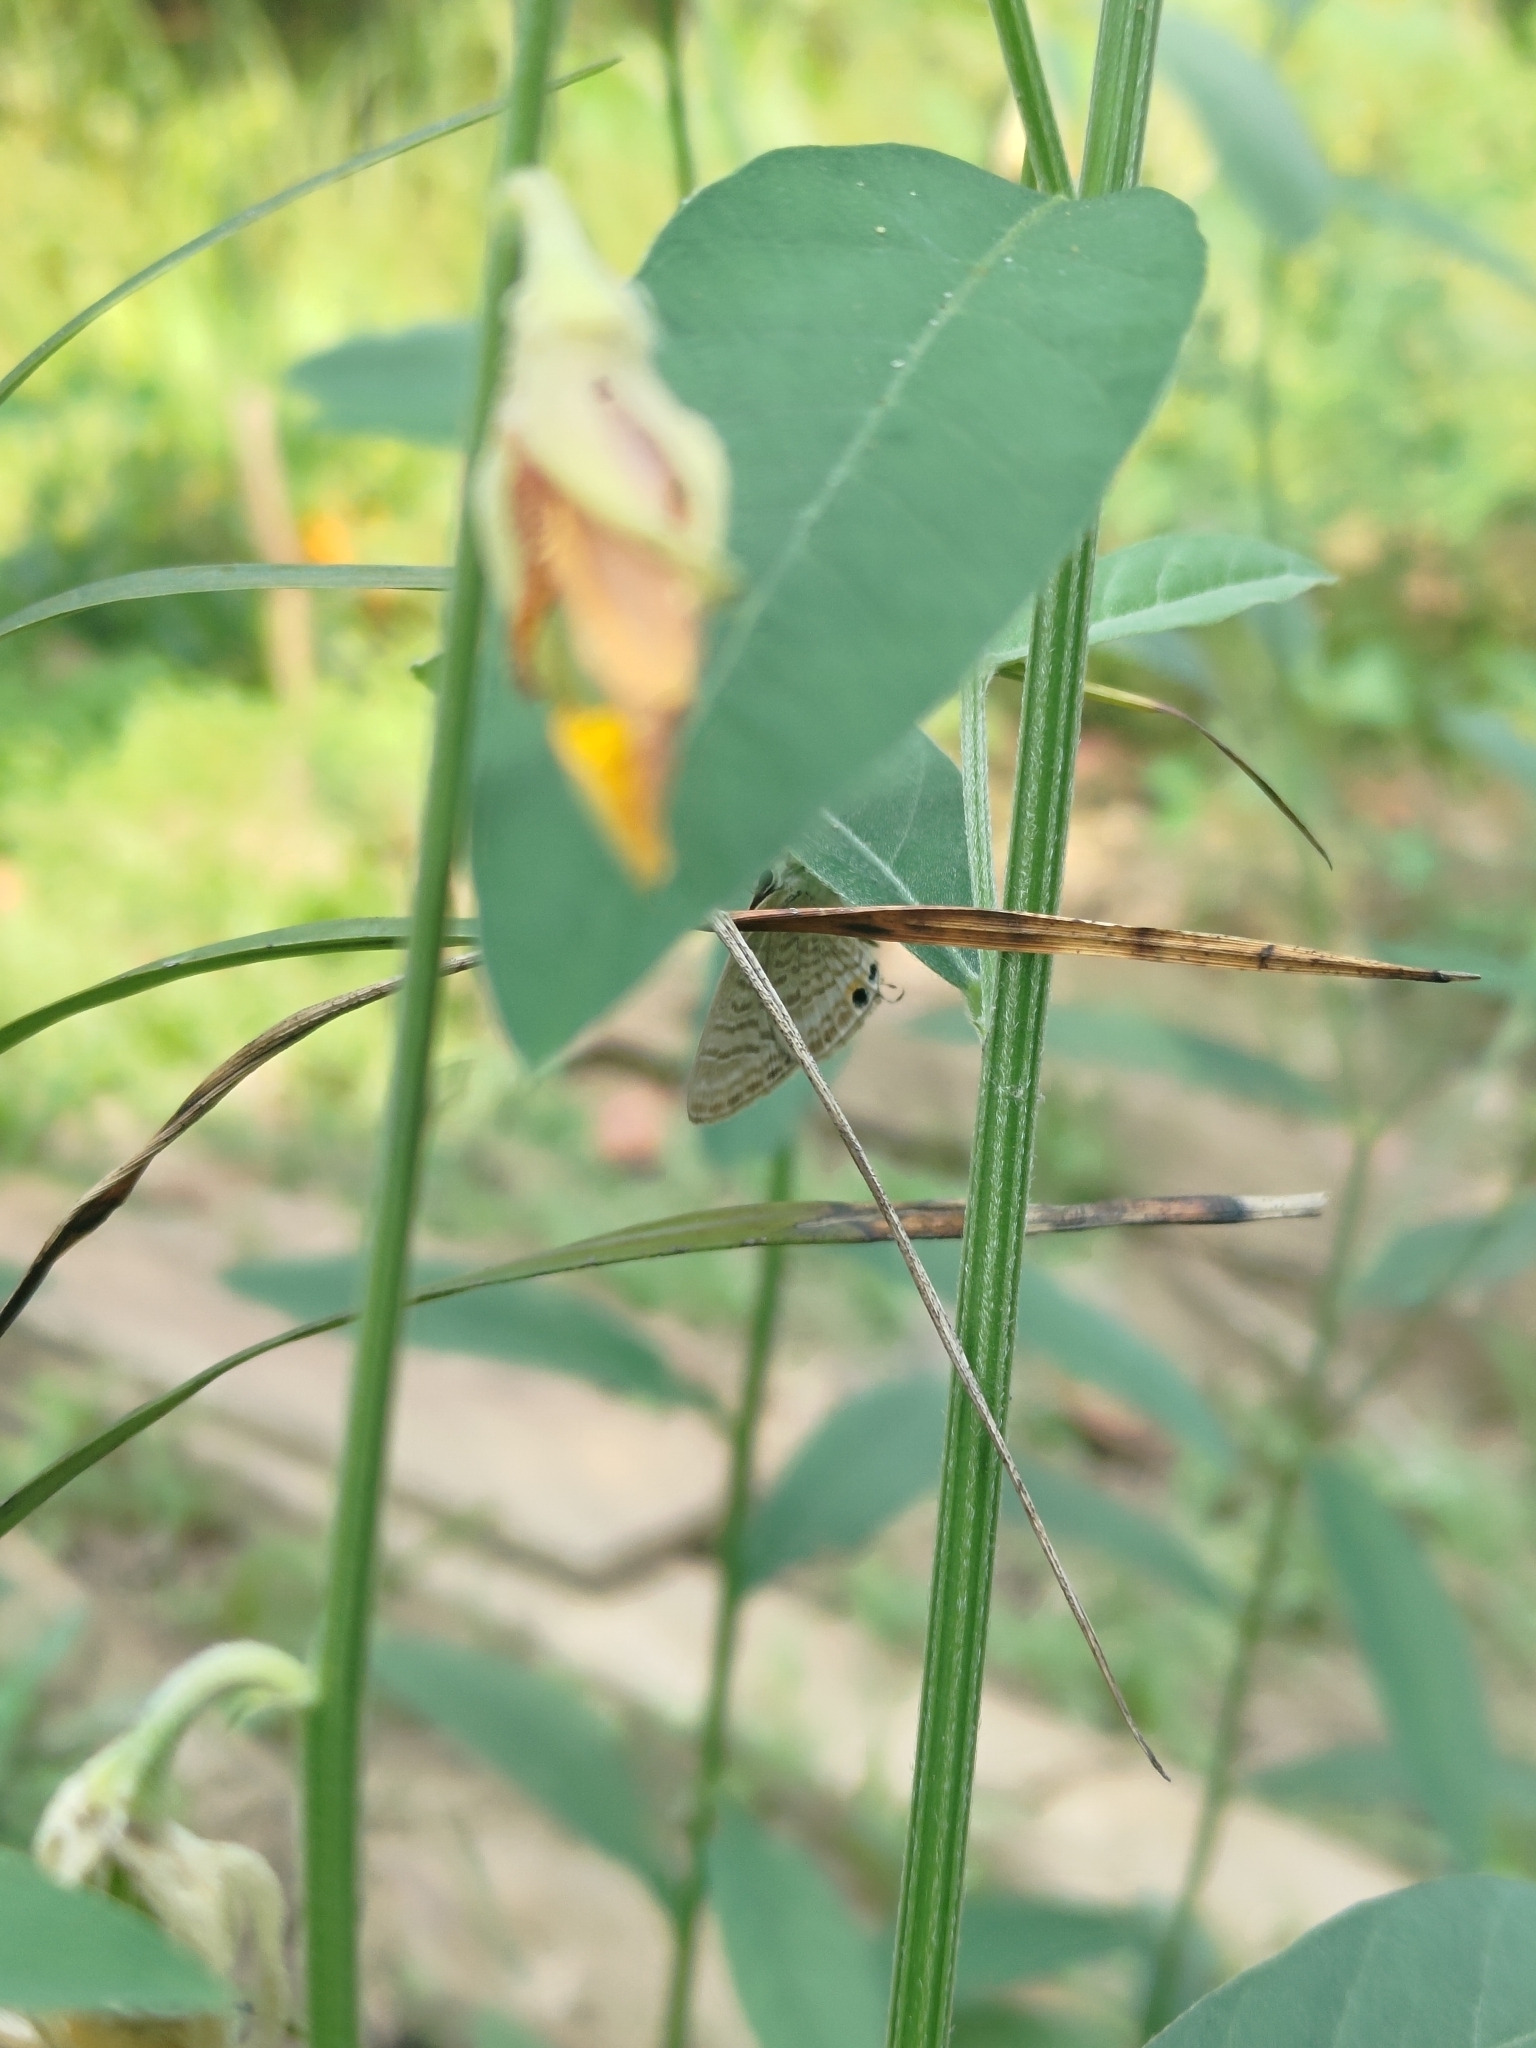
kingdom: Animalia
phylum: Arthropoda
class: Insecta
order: Lepidoptera
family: Lycaenidae
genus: Lampides
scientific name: Lampides boeticus
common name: Long-tailed blue
